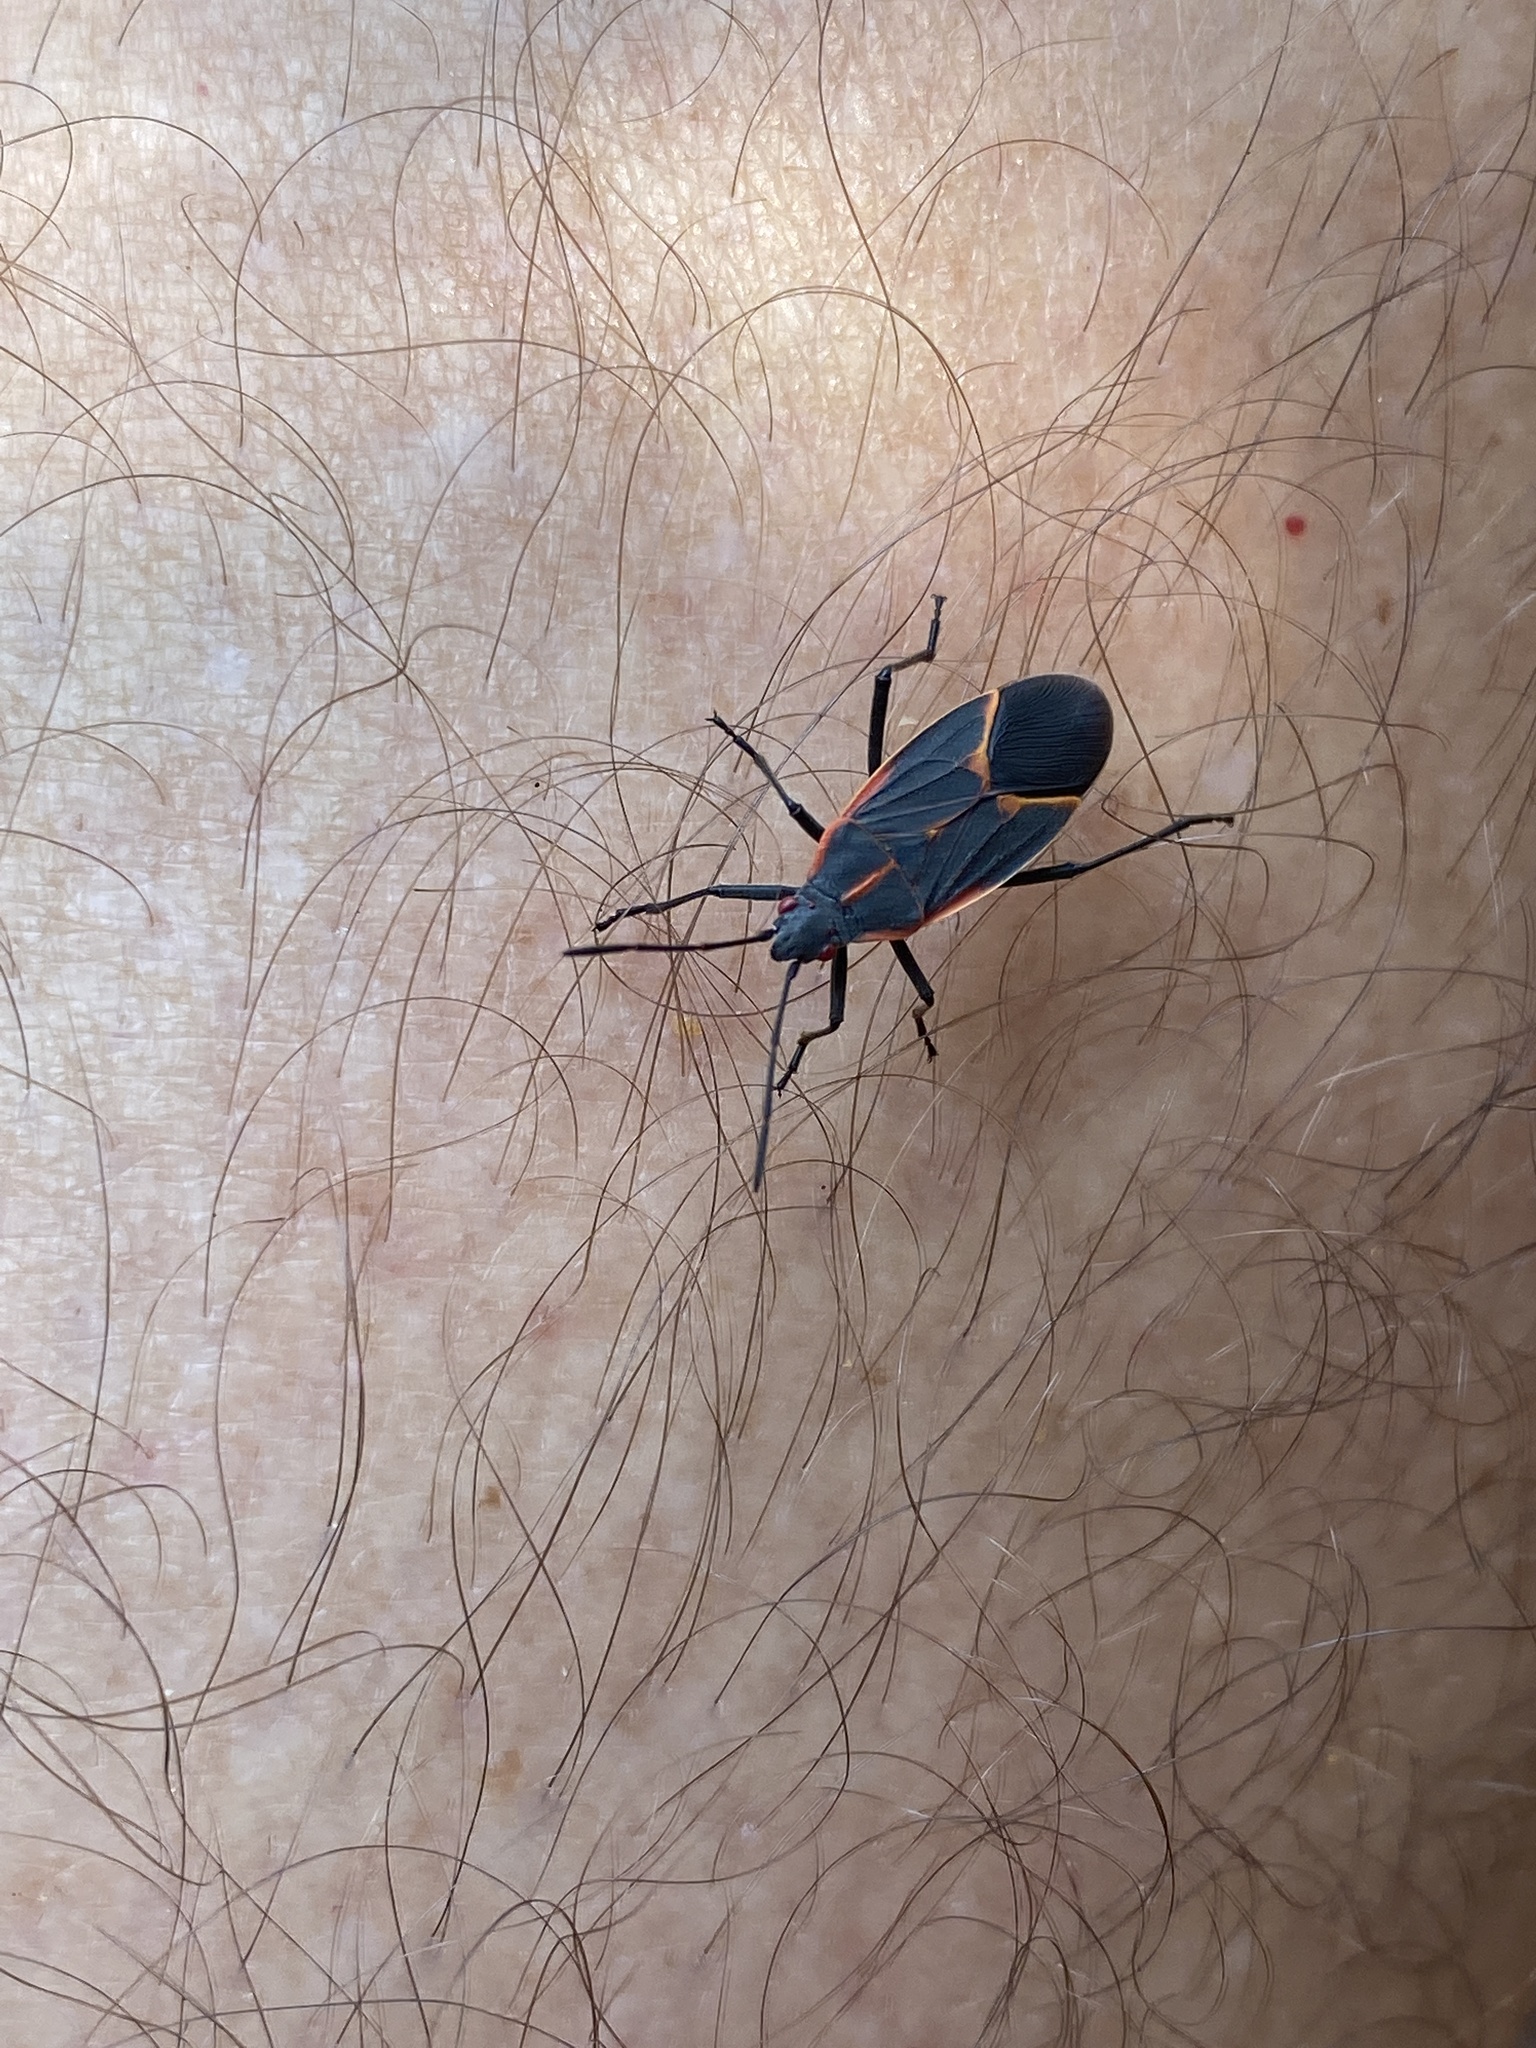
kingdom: Animalia
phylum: Arthropoda
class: Insecta
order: Hemiptera
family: Rhopalidae
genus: Boisea
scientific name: Boisea trivittata
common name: Boxelder bug
